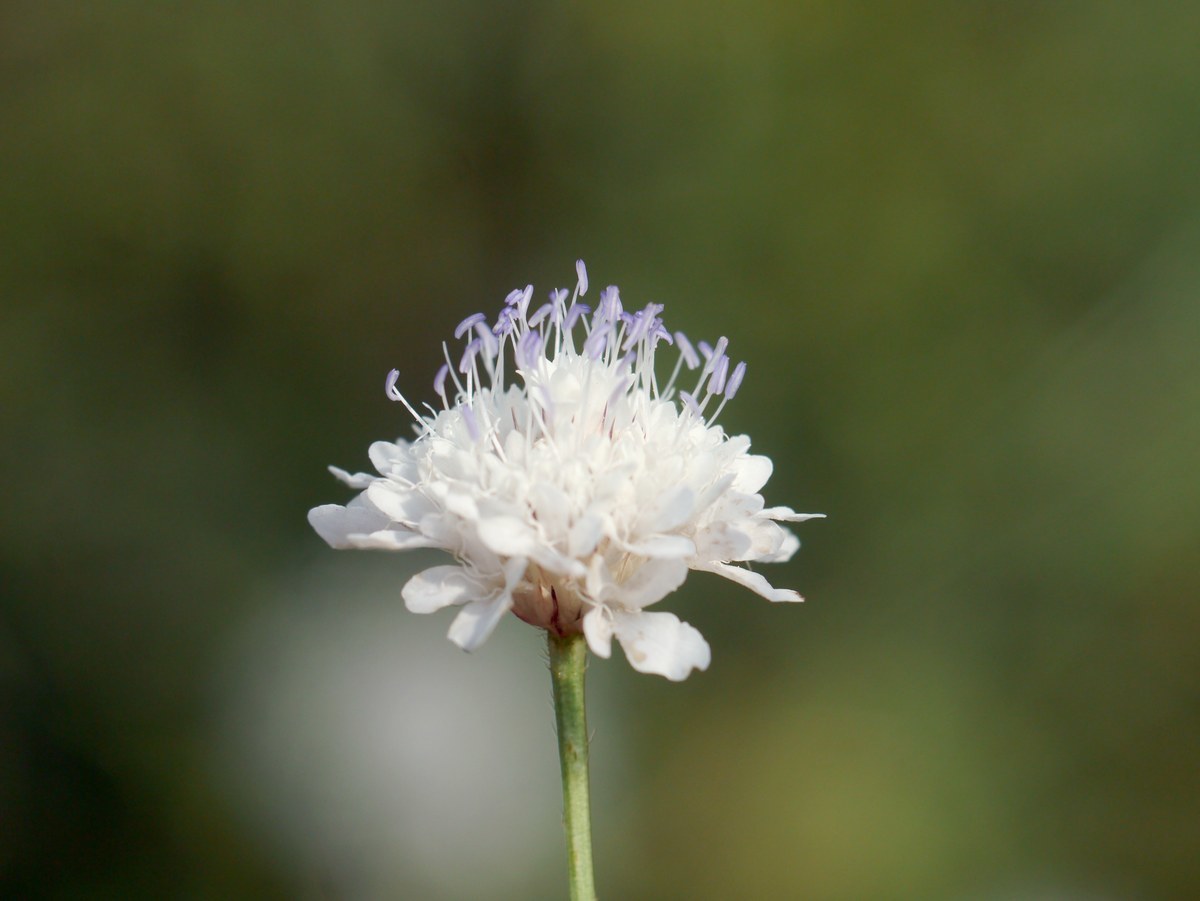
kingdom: Plantae
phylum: Tracheophyta
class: Magnoliopsida
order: Dipsacales
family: Caprifoliaceae
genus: Cephalaria
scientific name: Cephalaria transsylvanica
